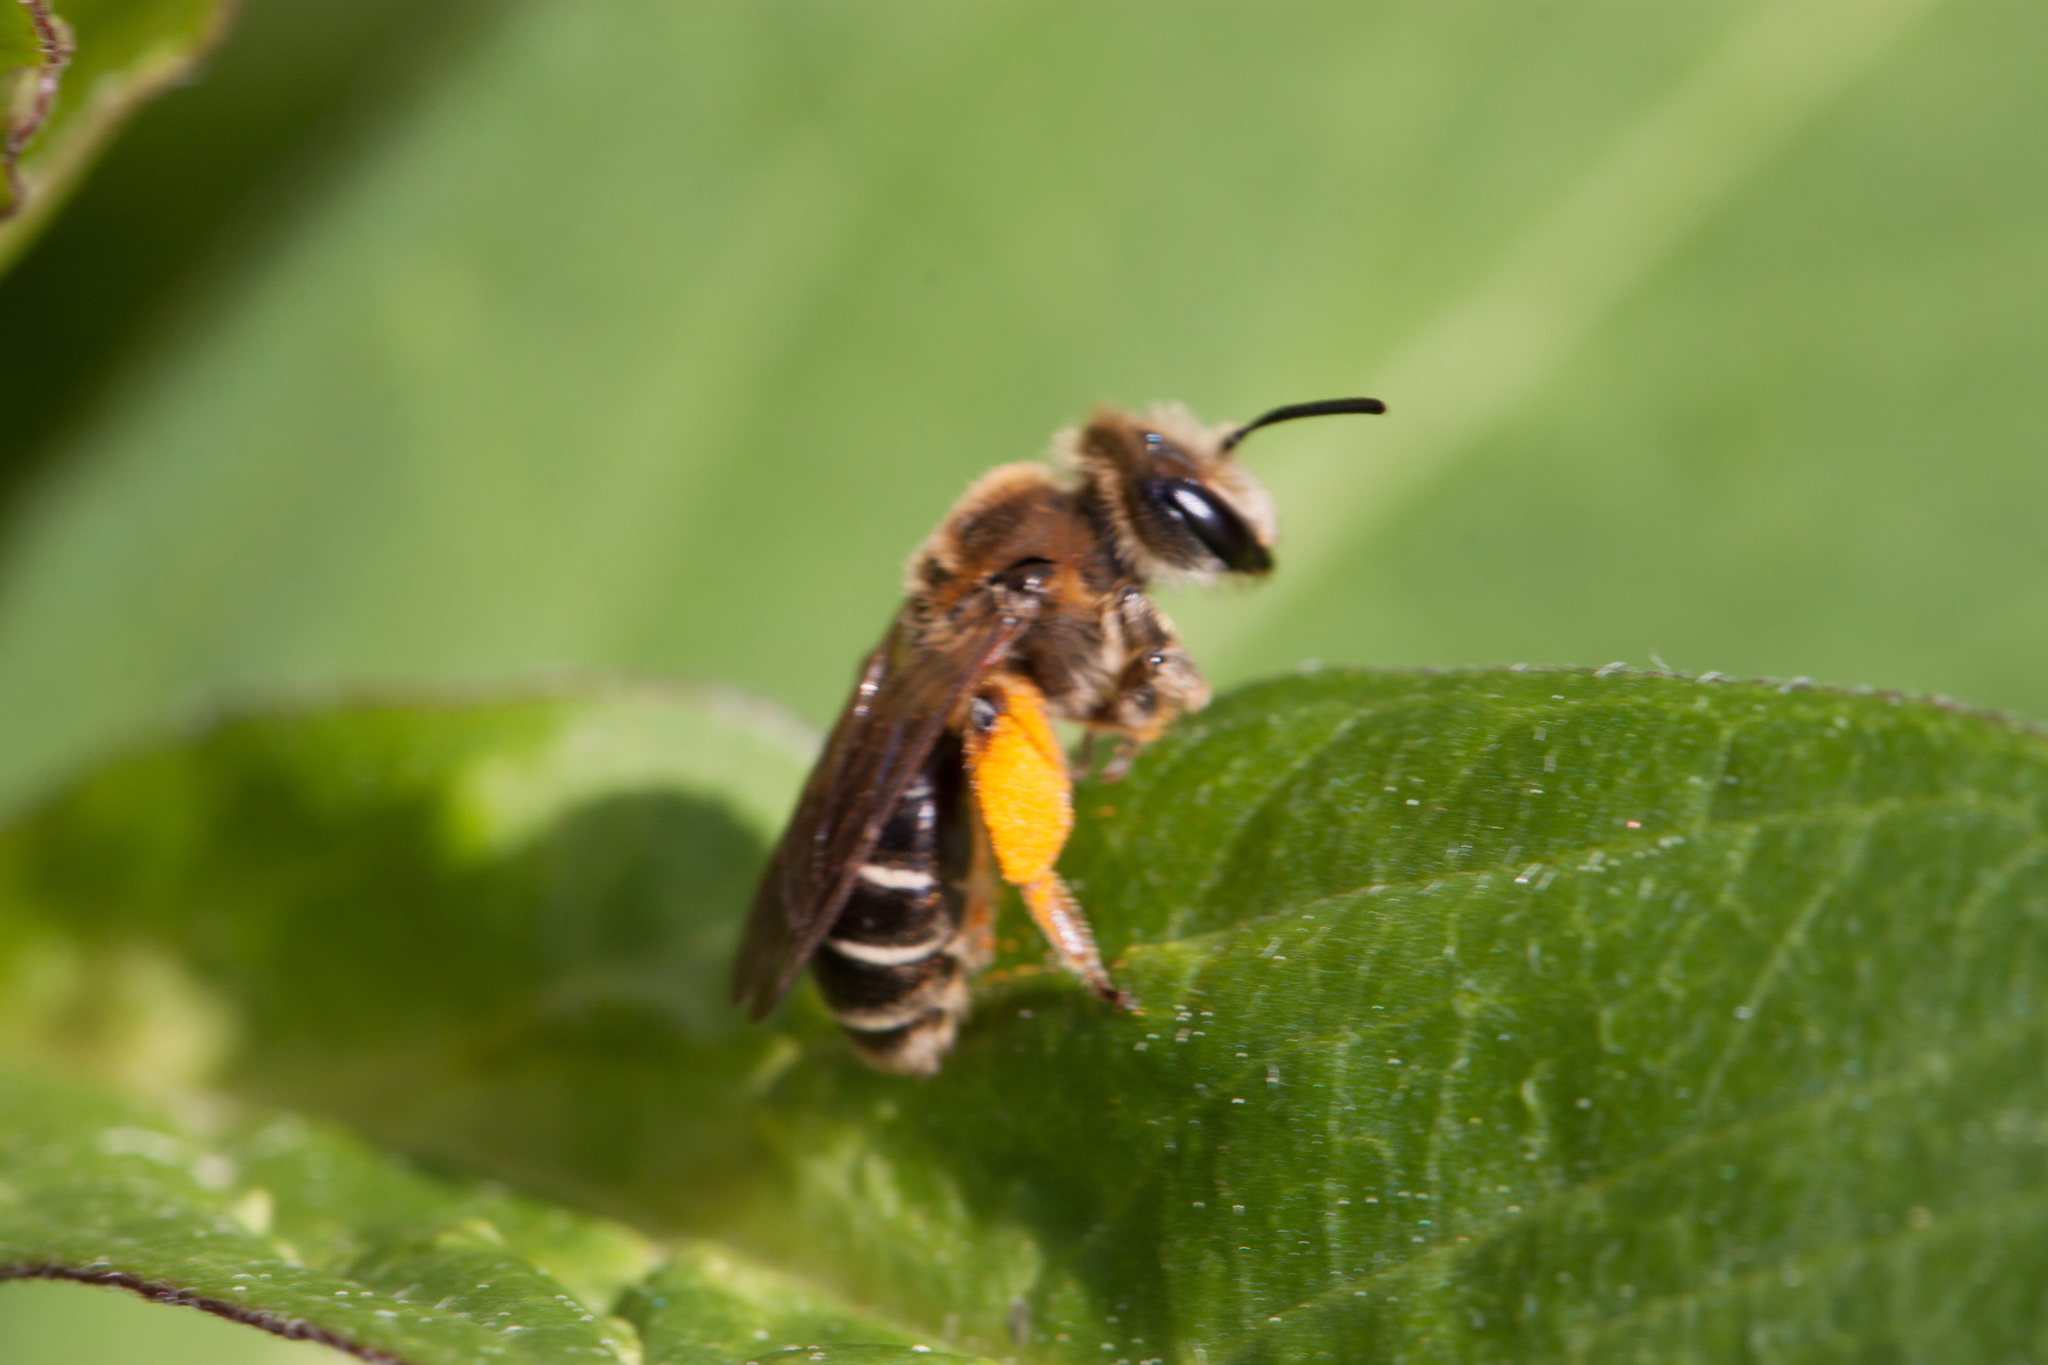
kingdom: Animalia
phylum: Arthropoda
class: Insecta
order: Hymenoptera
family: Andrenidae
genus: Andrena
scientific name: Andrena wilkella
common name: Wilke's mining bee
